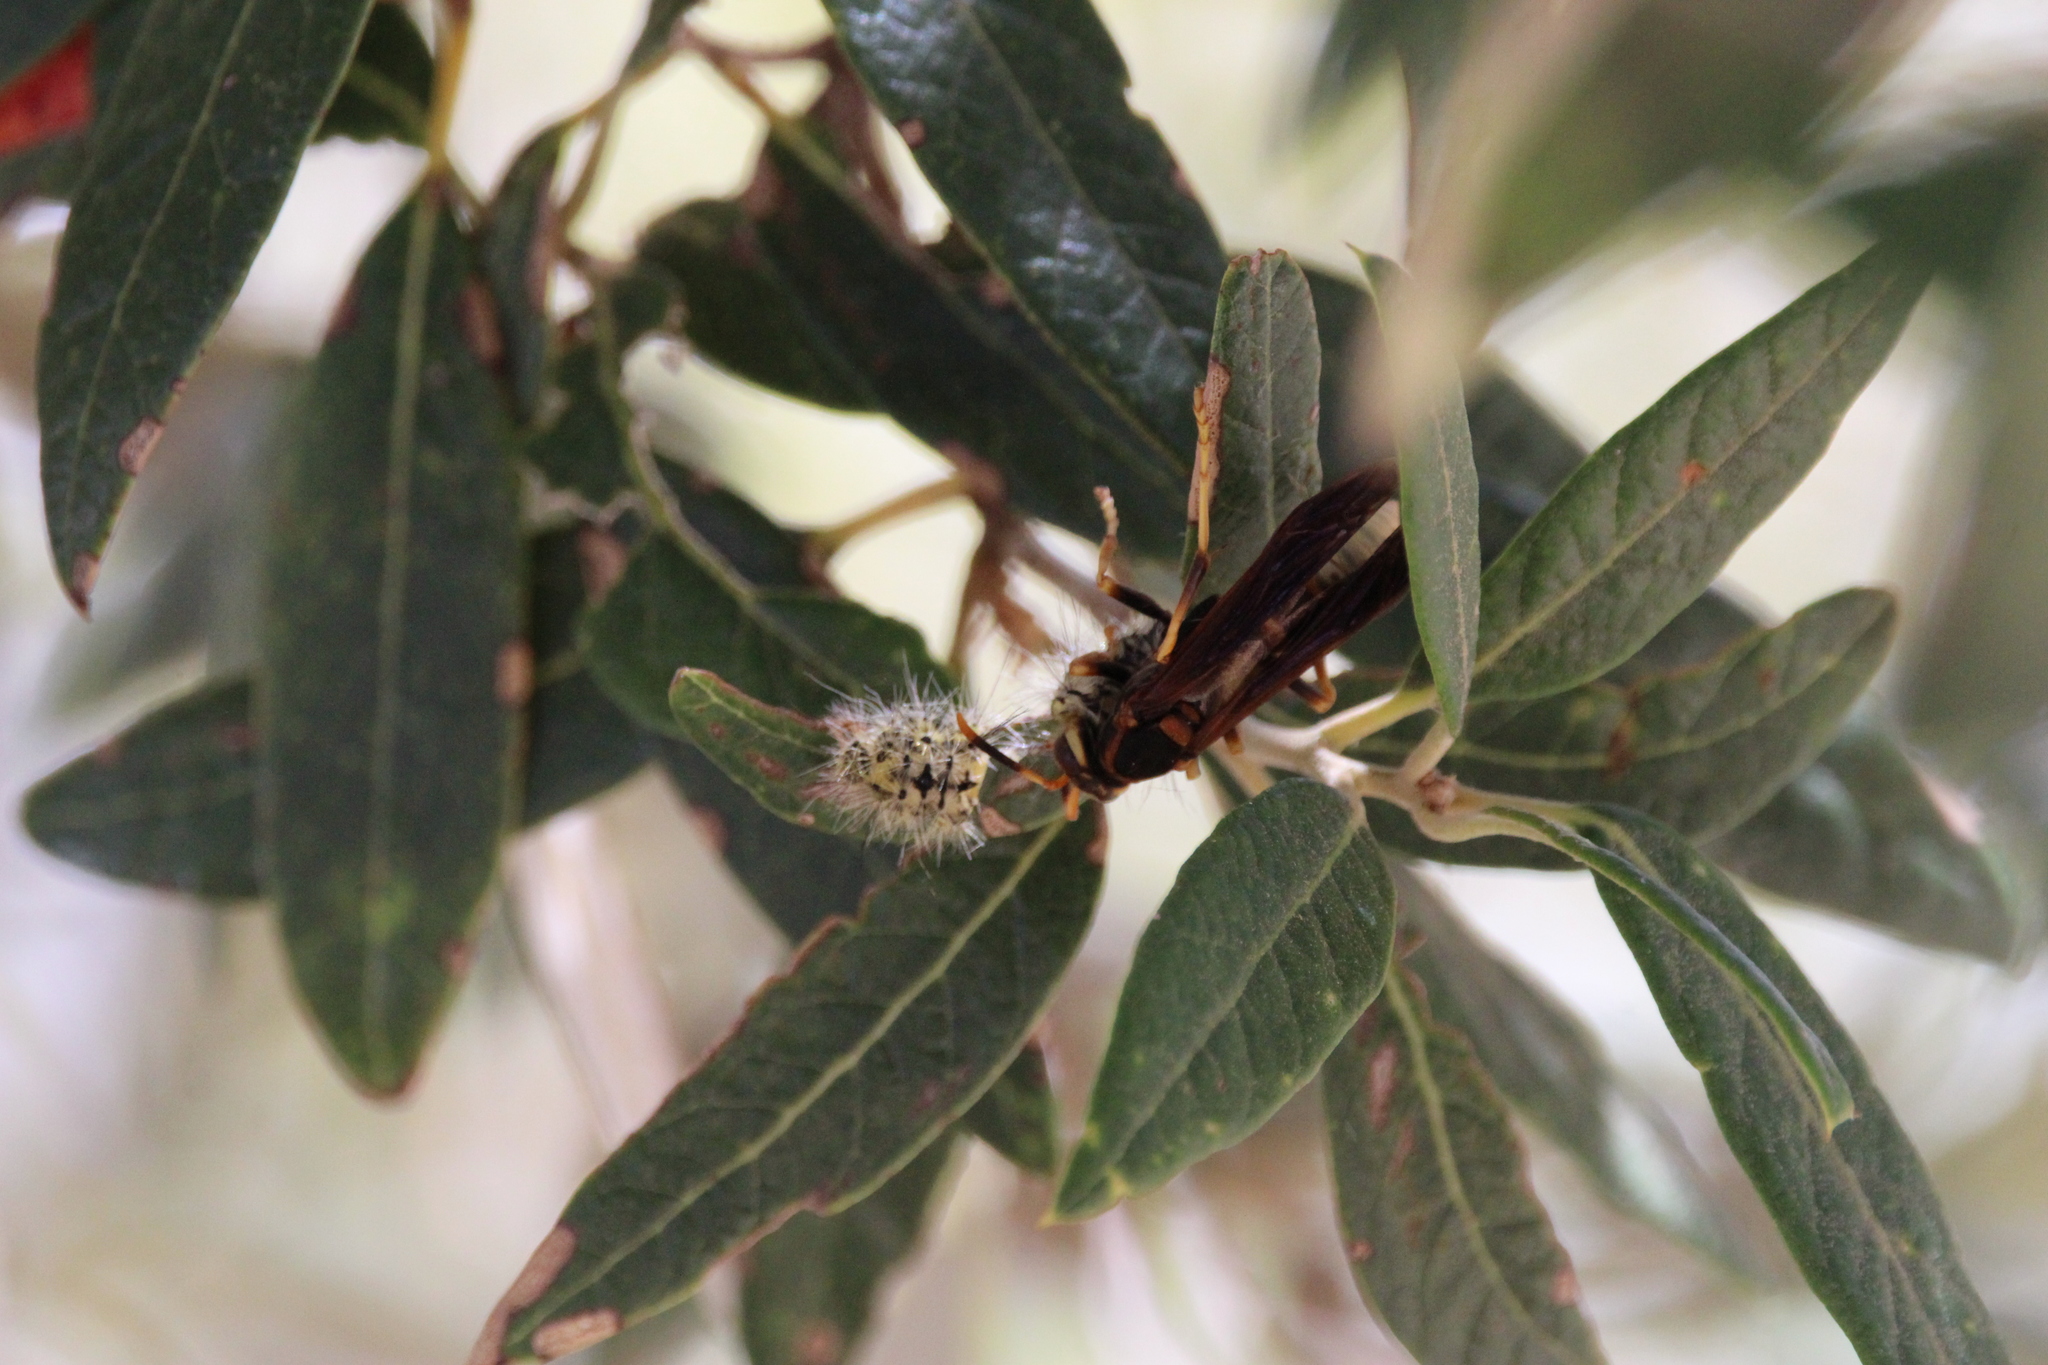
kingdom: Animalia
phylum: Arthropoda
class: Insecta
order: Hymenoptera
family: Eumenidae
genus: Polistes
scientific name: Polistes comanchus
